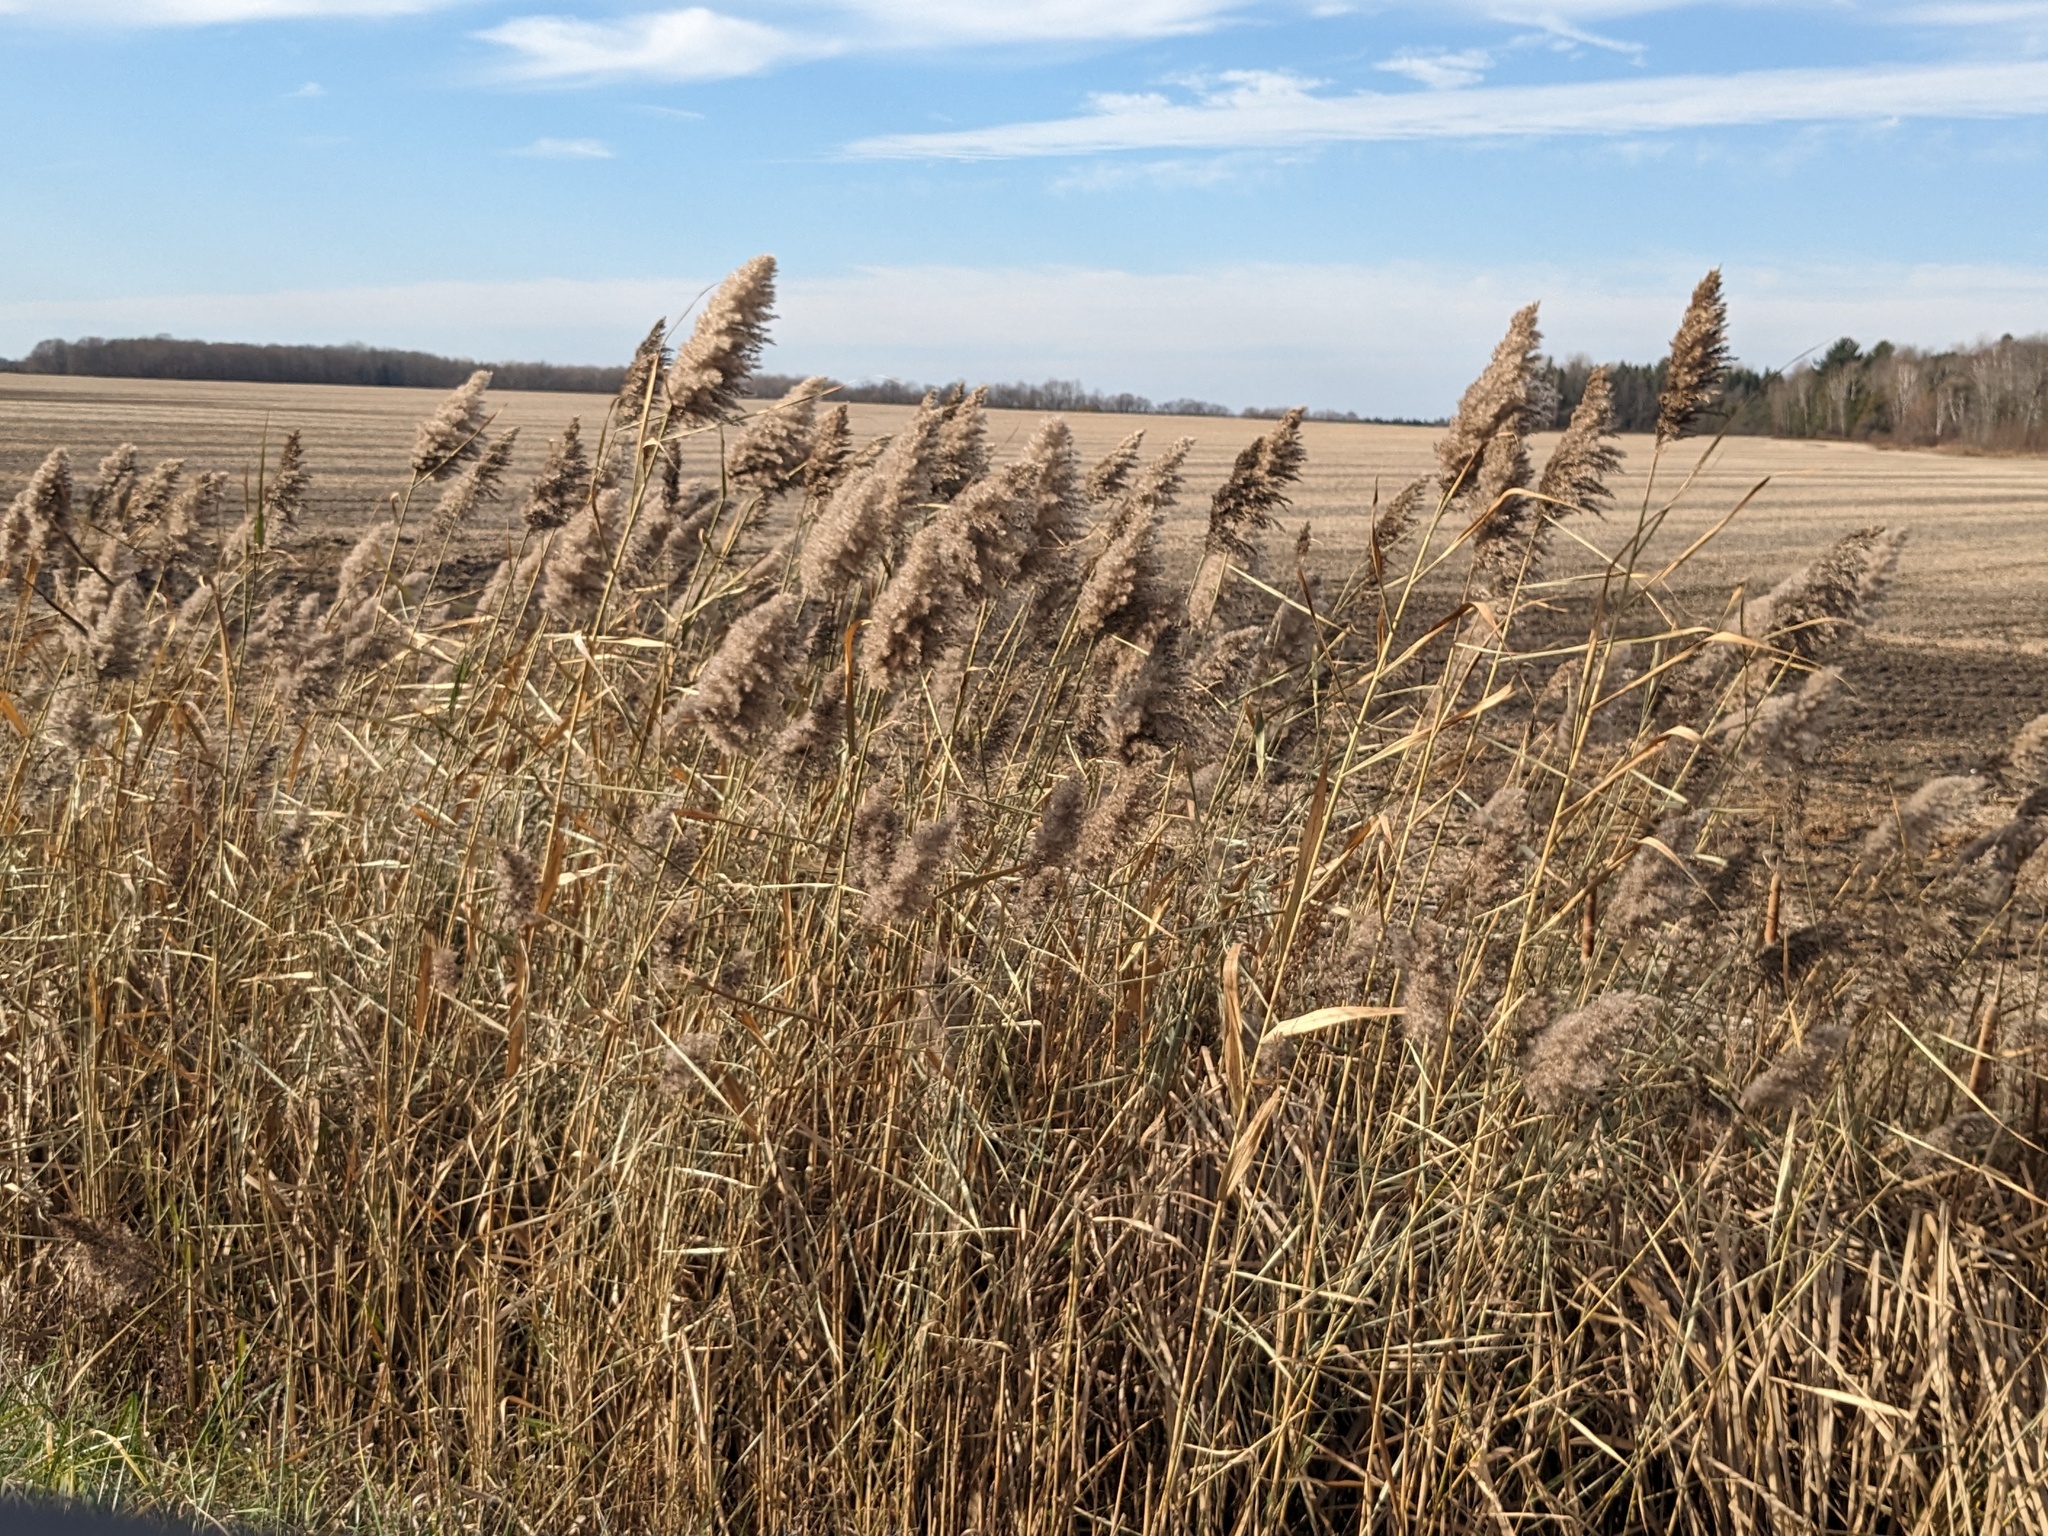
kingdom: Plantae
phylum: Tracheophyta
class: Liliopsida
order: Poales
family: Poaceae
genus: Phragmites
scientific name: Phragmites australis
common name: Common reed
